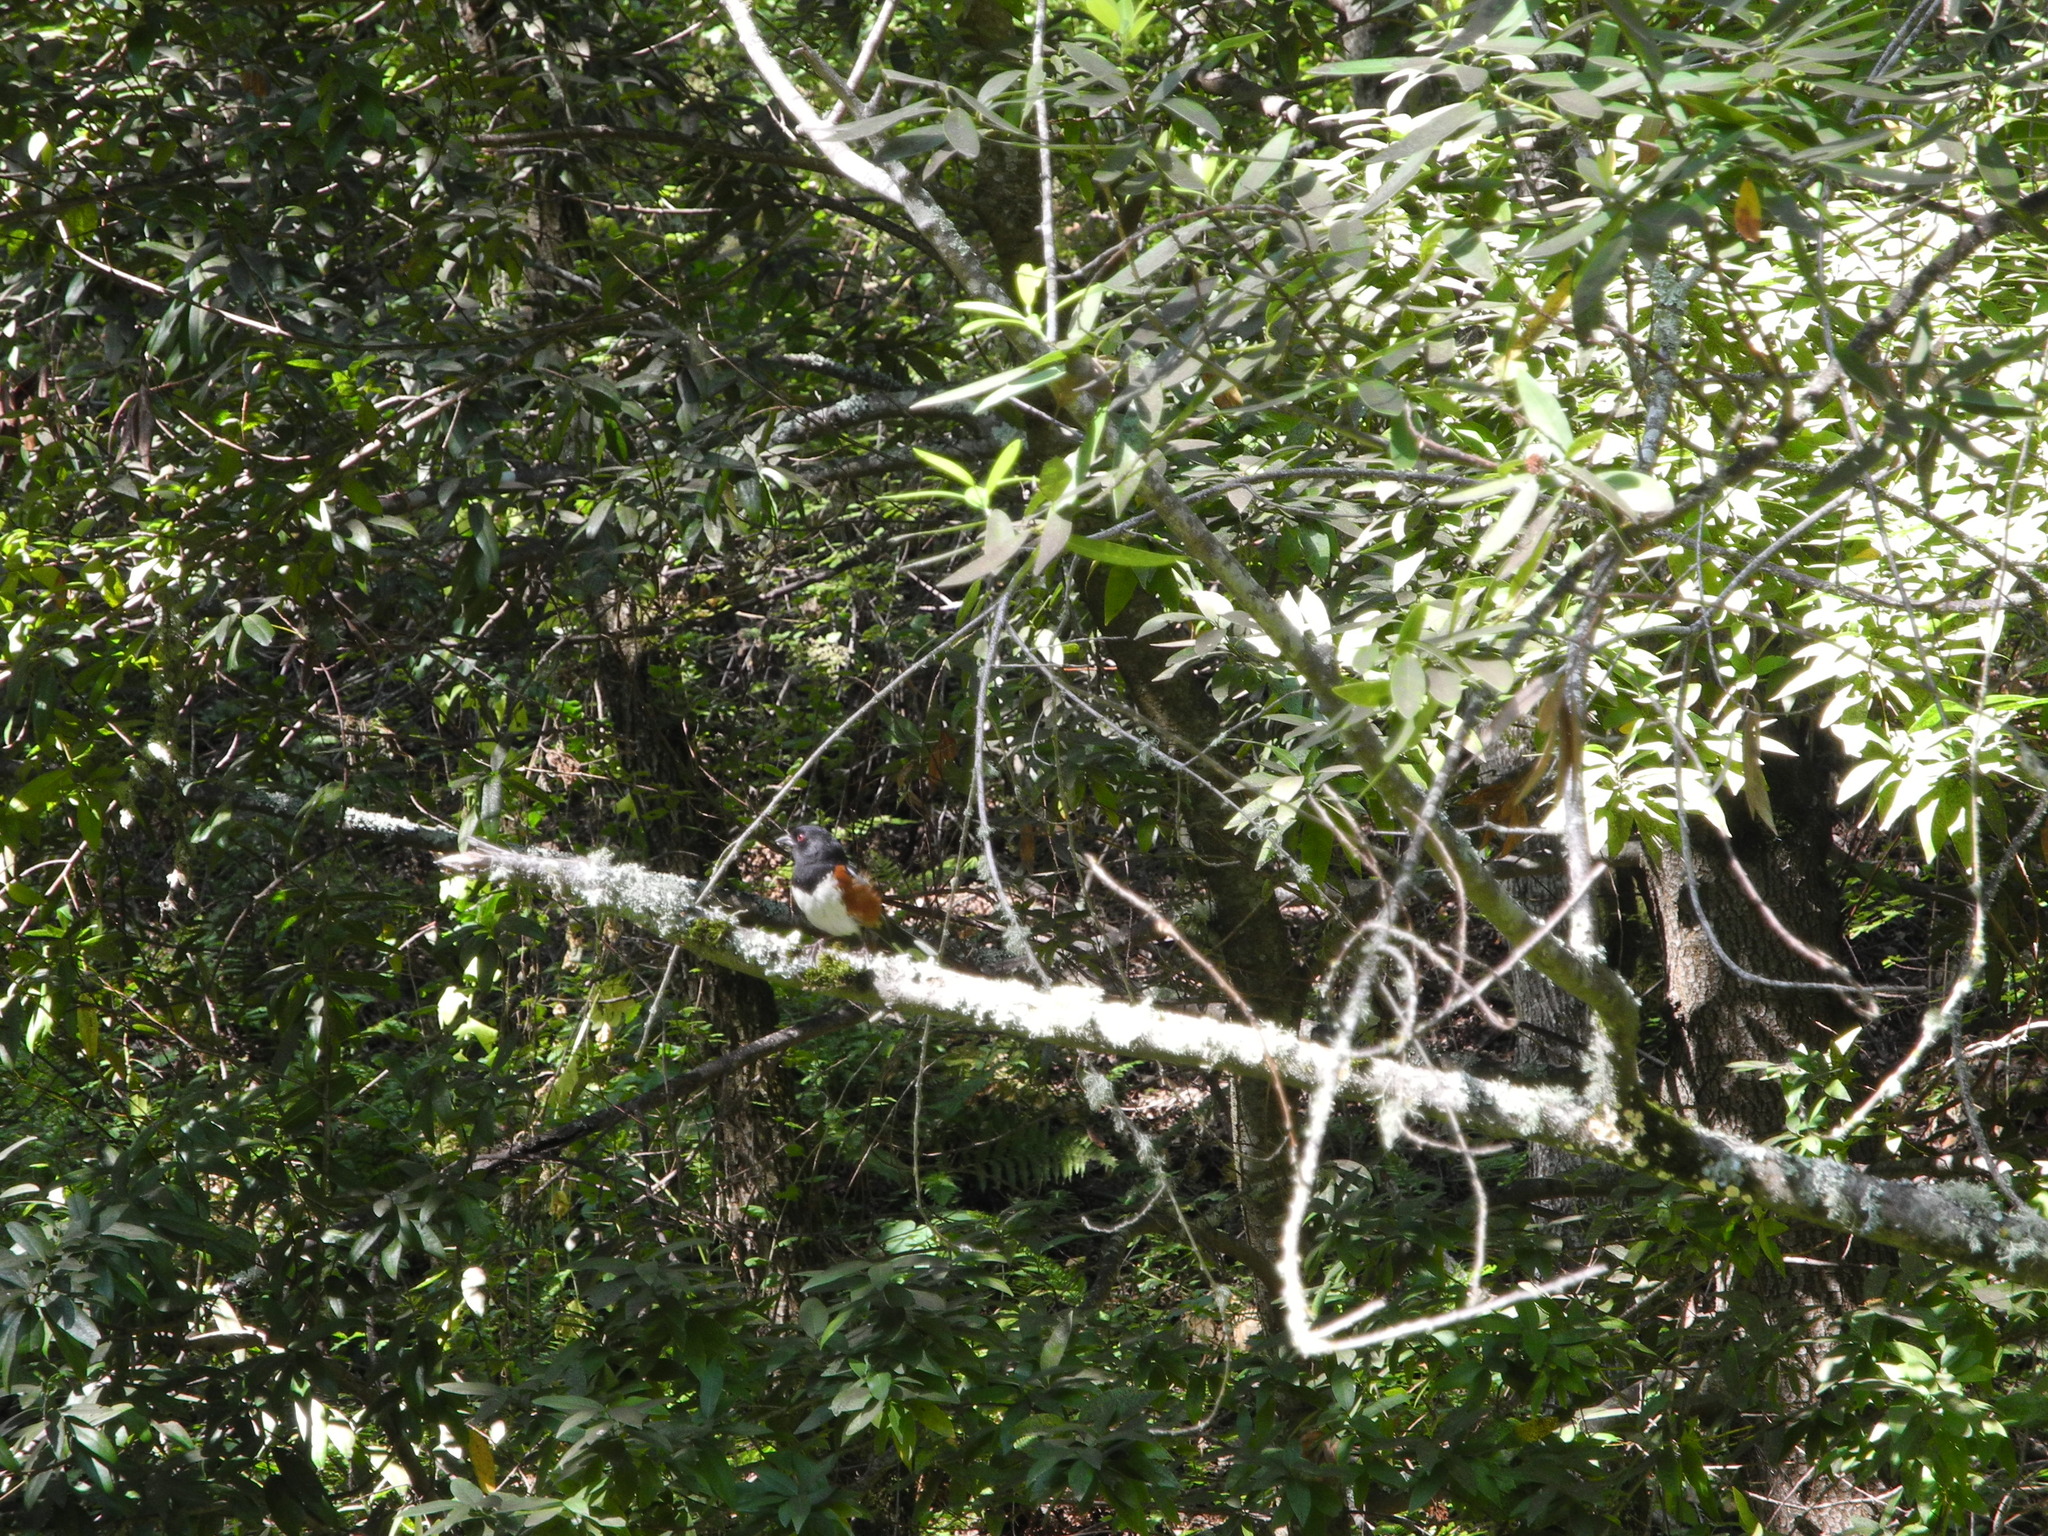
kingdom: Animalia
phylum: Chordata
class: Aves
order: Passeriformes
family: Passerellidae
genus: Pipilo
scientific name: Pipilo maculatus
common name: Spotted towhee
